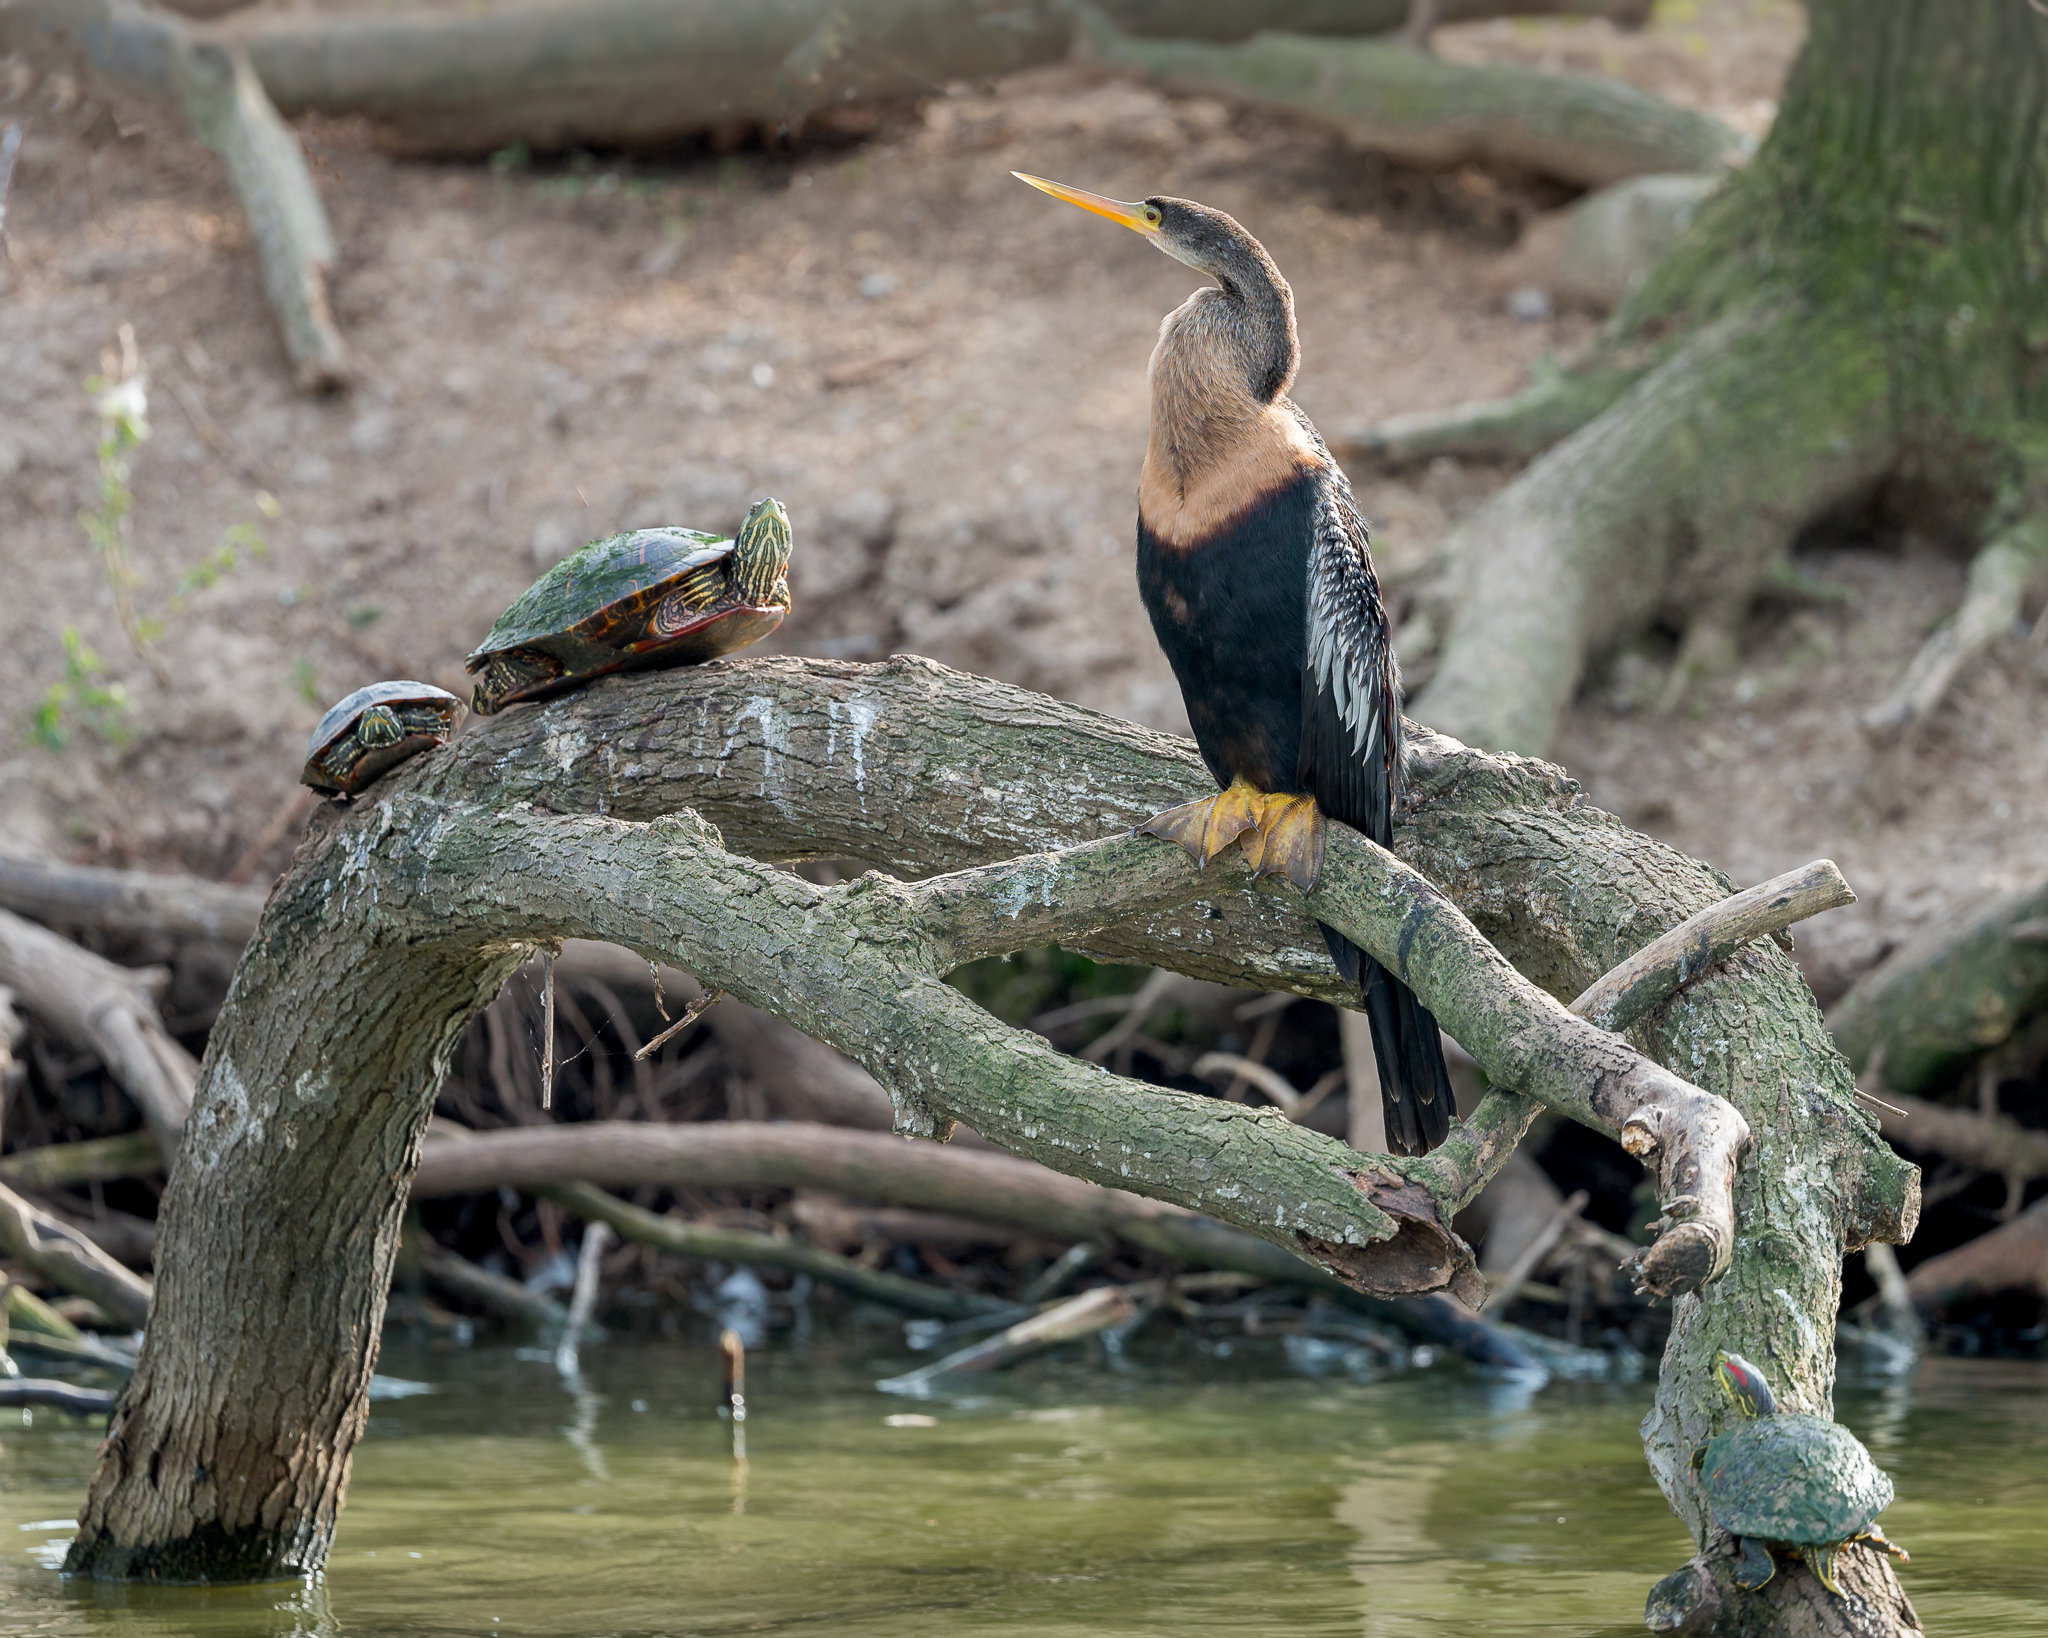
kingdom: Animalia
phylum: Chordata
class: Aves
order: Suliformes
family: Anhingidae
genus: Anhinga
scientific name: Anhinga anhinga
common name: Anhinga
